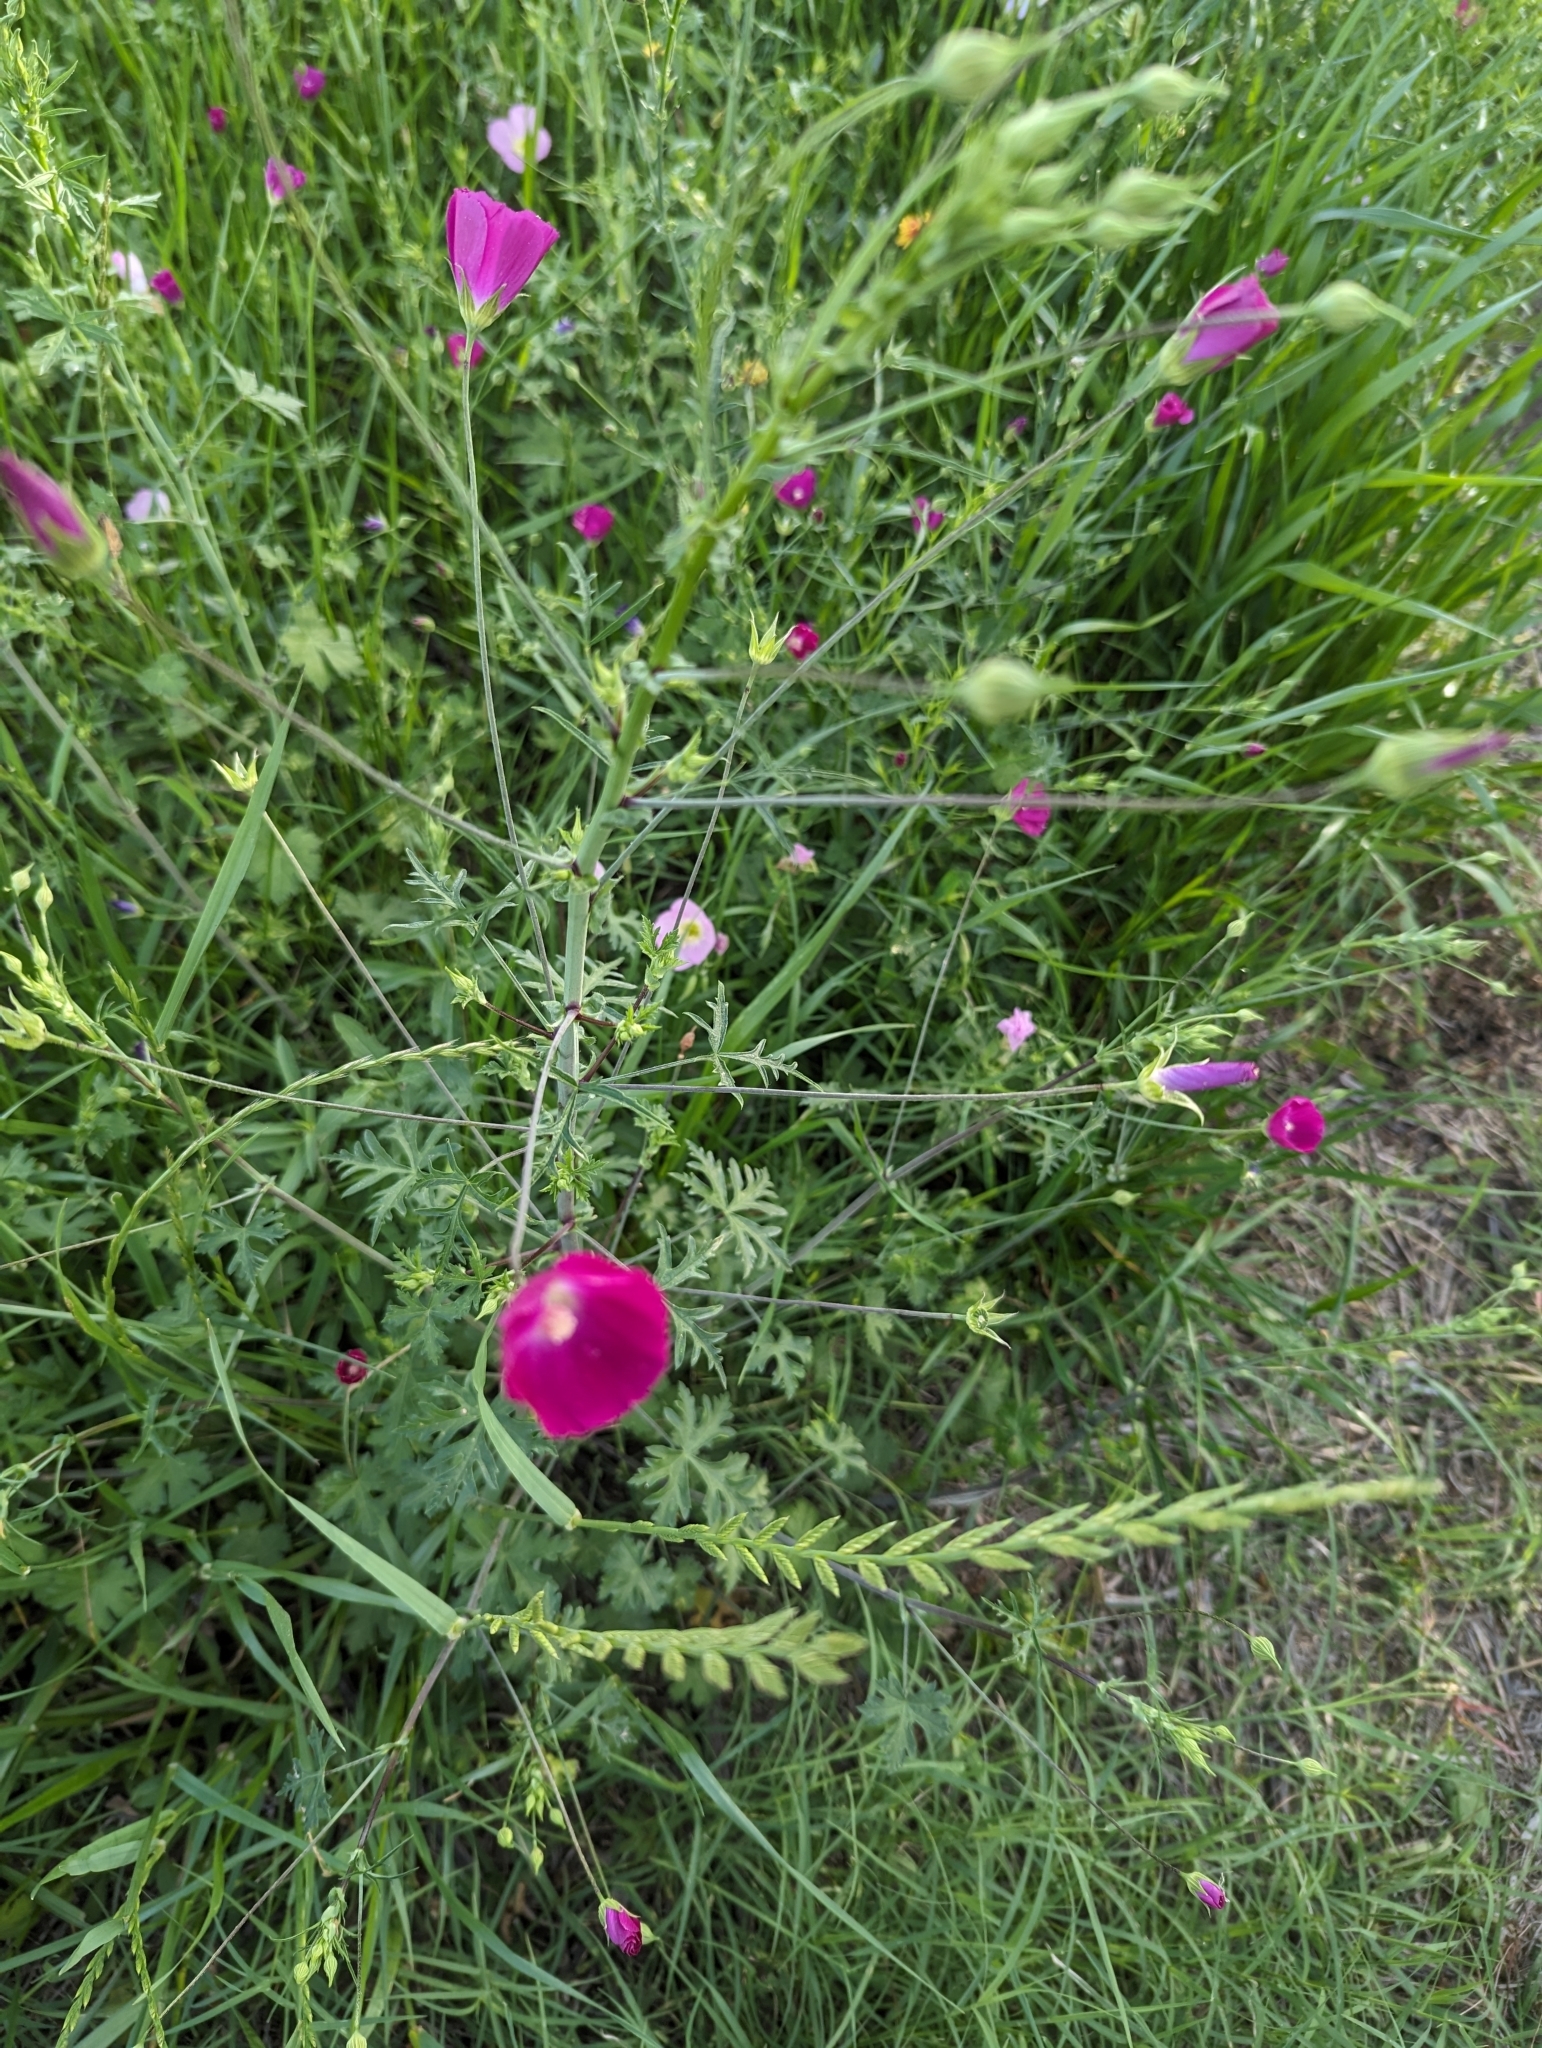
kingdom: Plantae
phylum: Tracheophyta
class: Magnoliopsida
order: Malvales
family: Malvaceae
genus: Callirhoe
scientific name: Callirhoe leiocarpa
